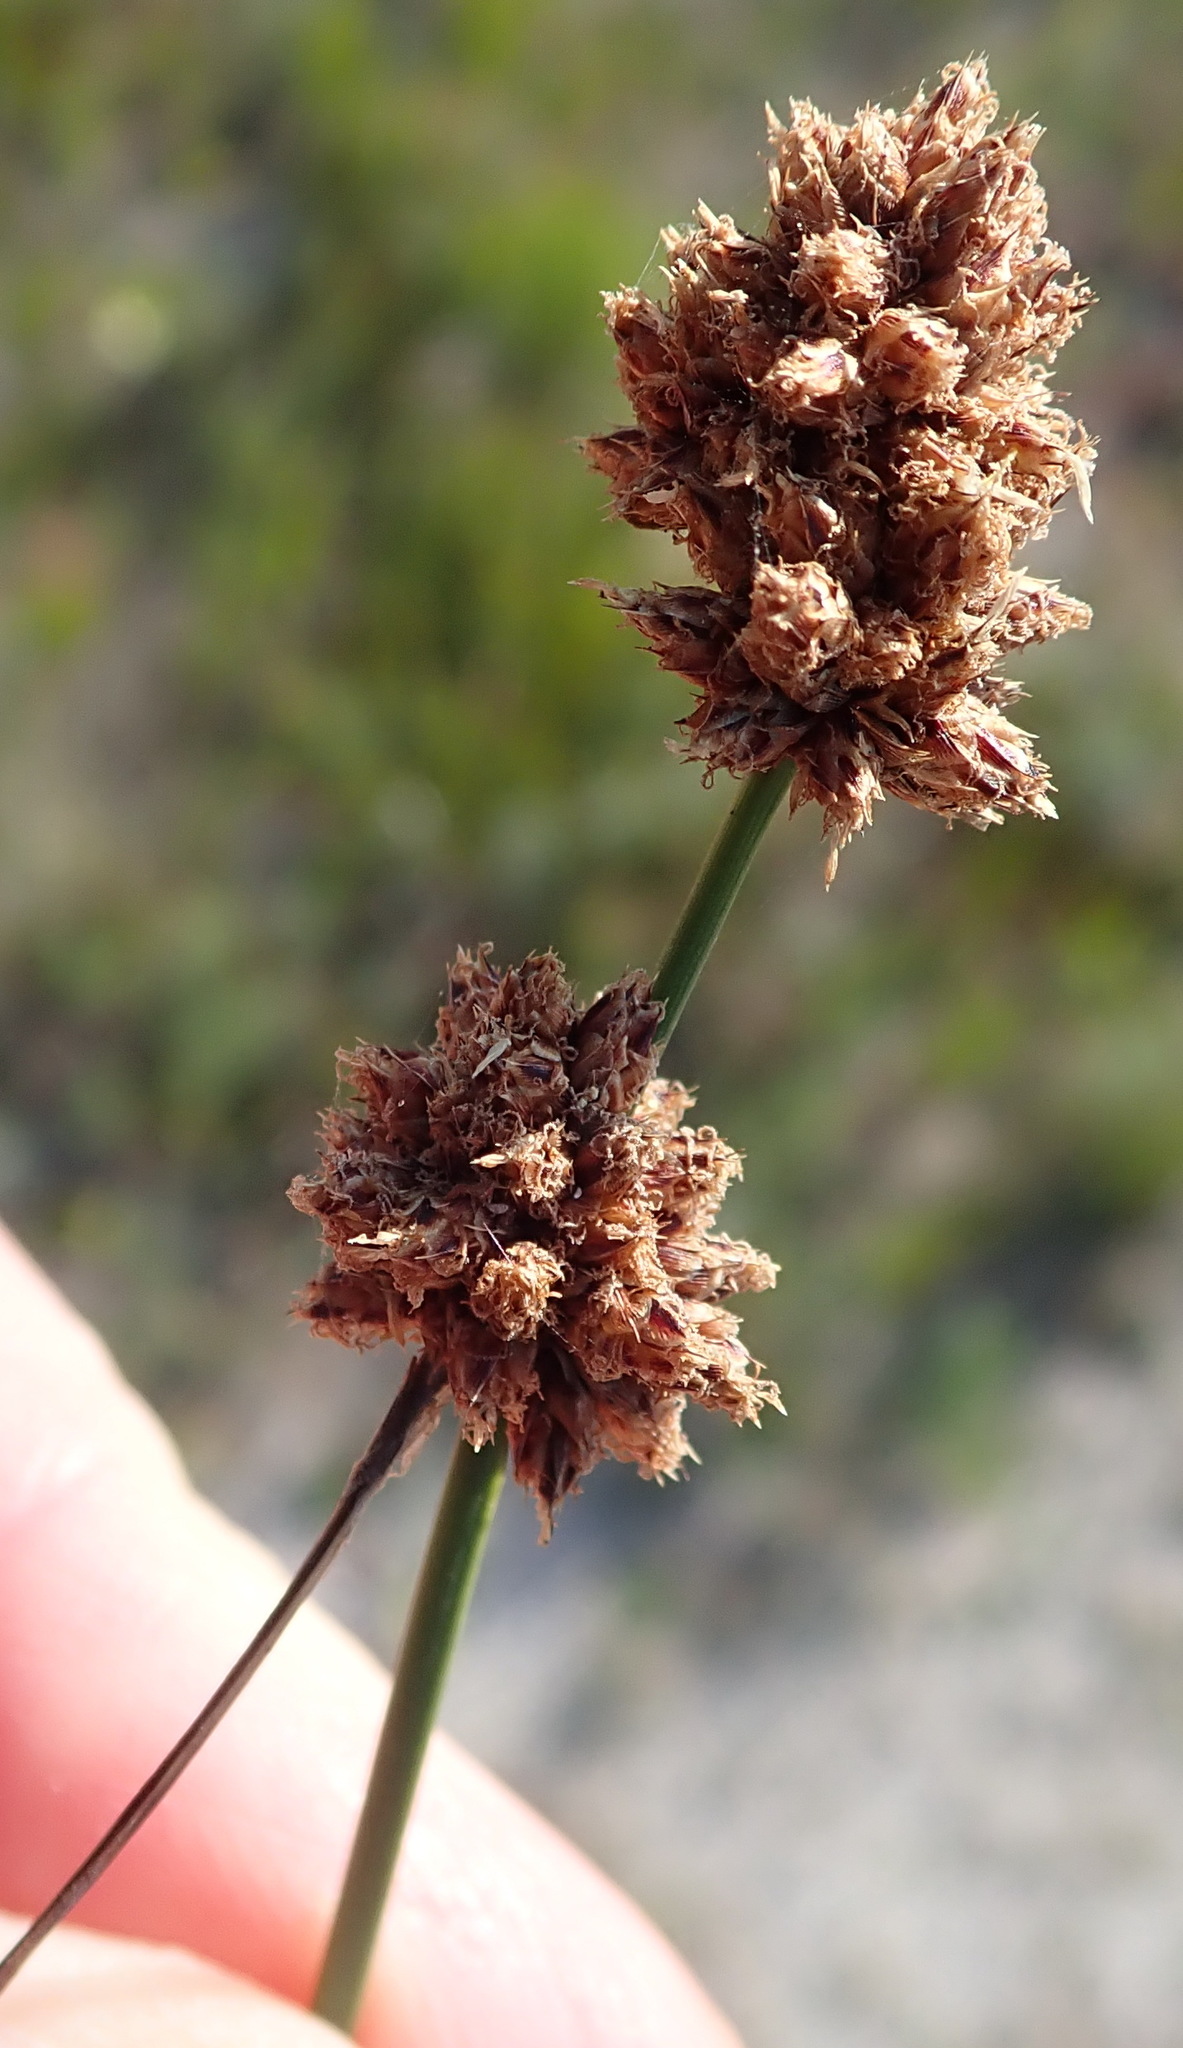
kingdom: Plantae
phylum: Tracheophyta
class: Liliopsida
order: Poales
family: Cyperaceae
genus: Ficinia
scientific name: Ficinia bulbosa
